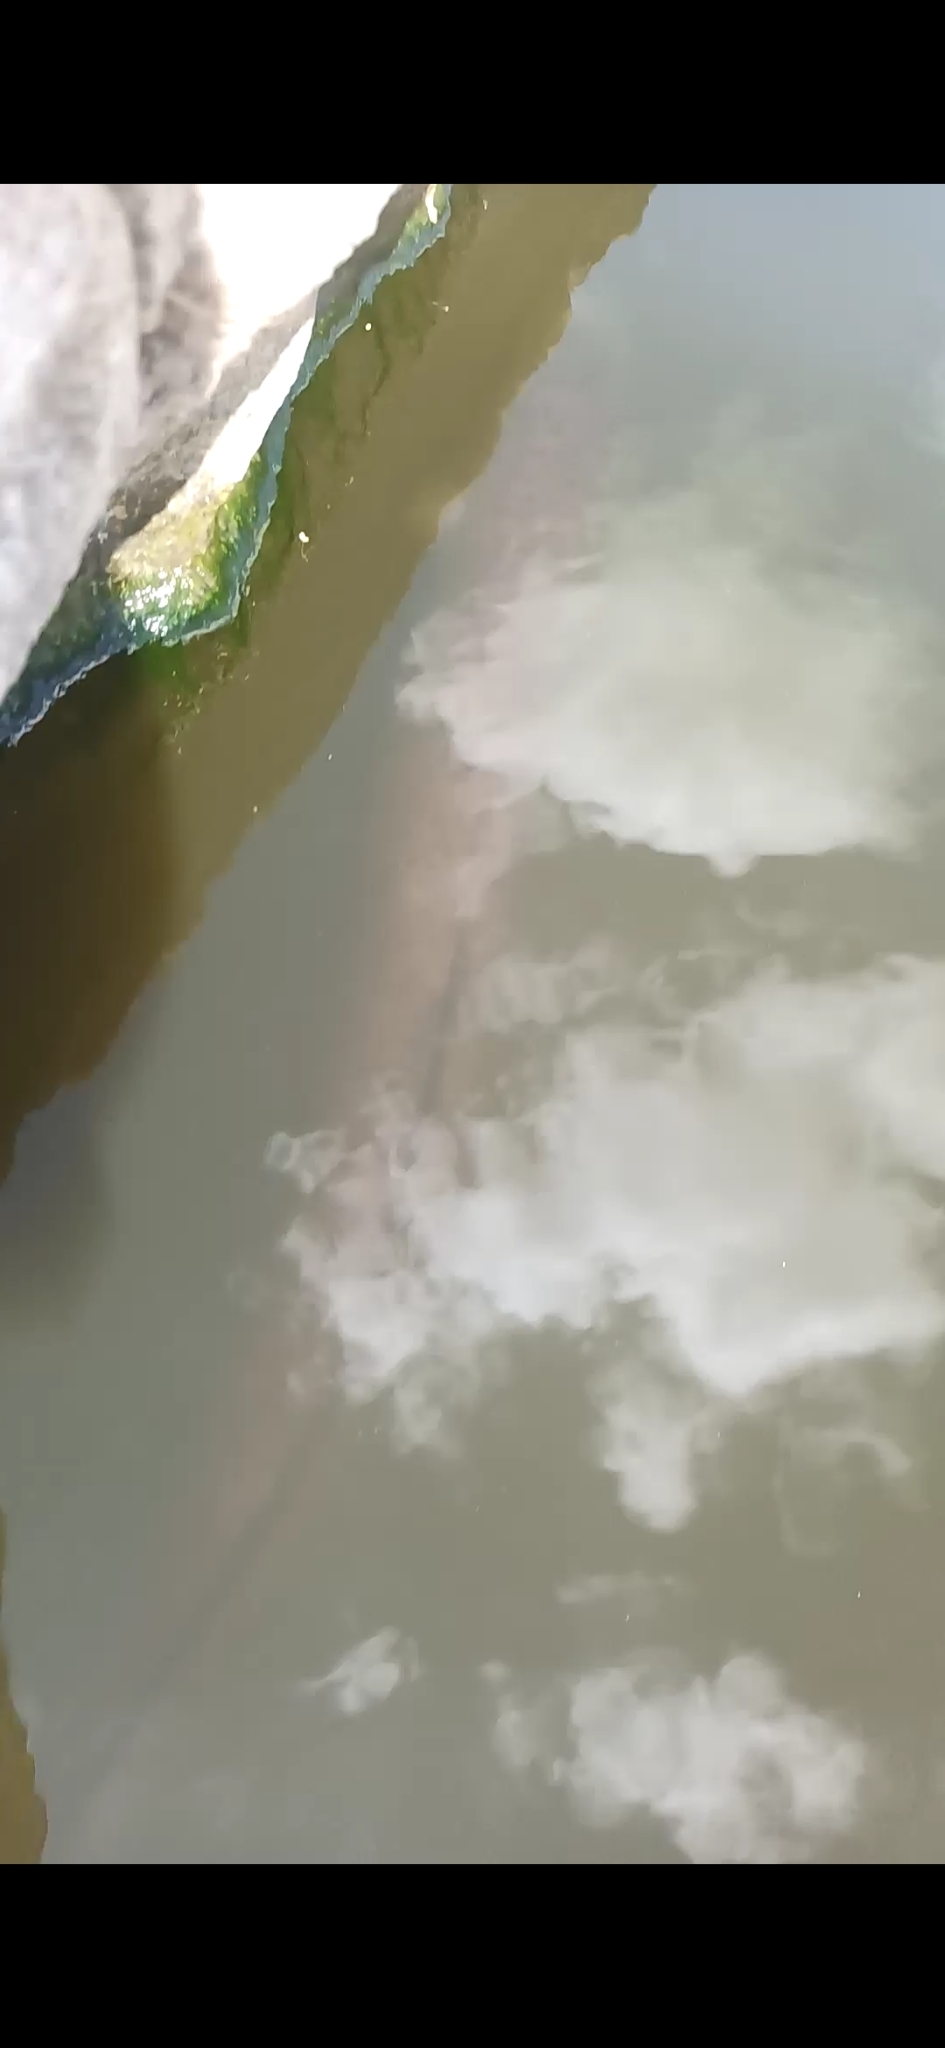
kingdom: Animalia
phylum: Chordata
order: Anguilliformes
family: Anguillidae
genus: Anguilla
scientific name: Anguilla reinhardtii
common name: Longfin eel
